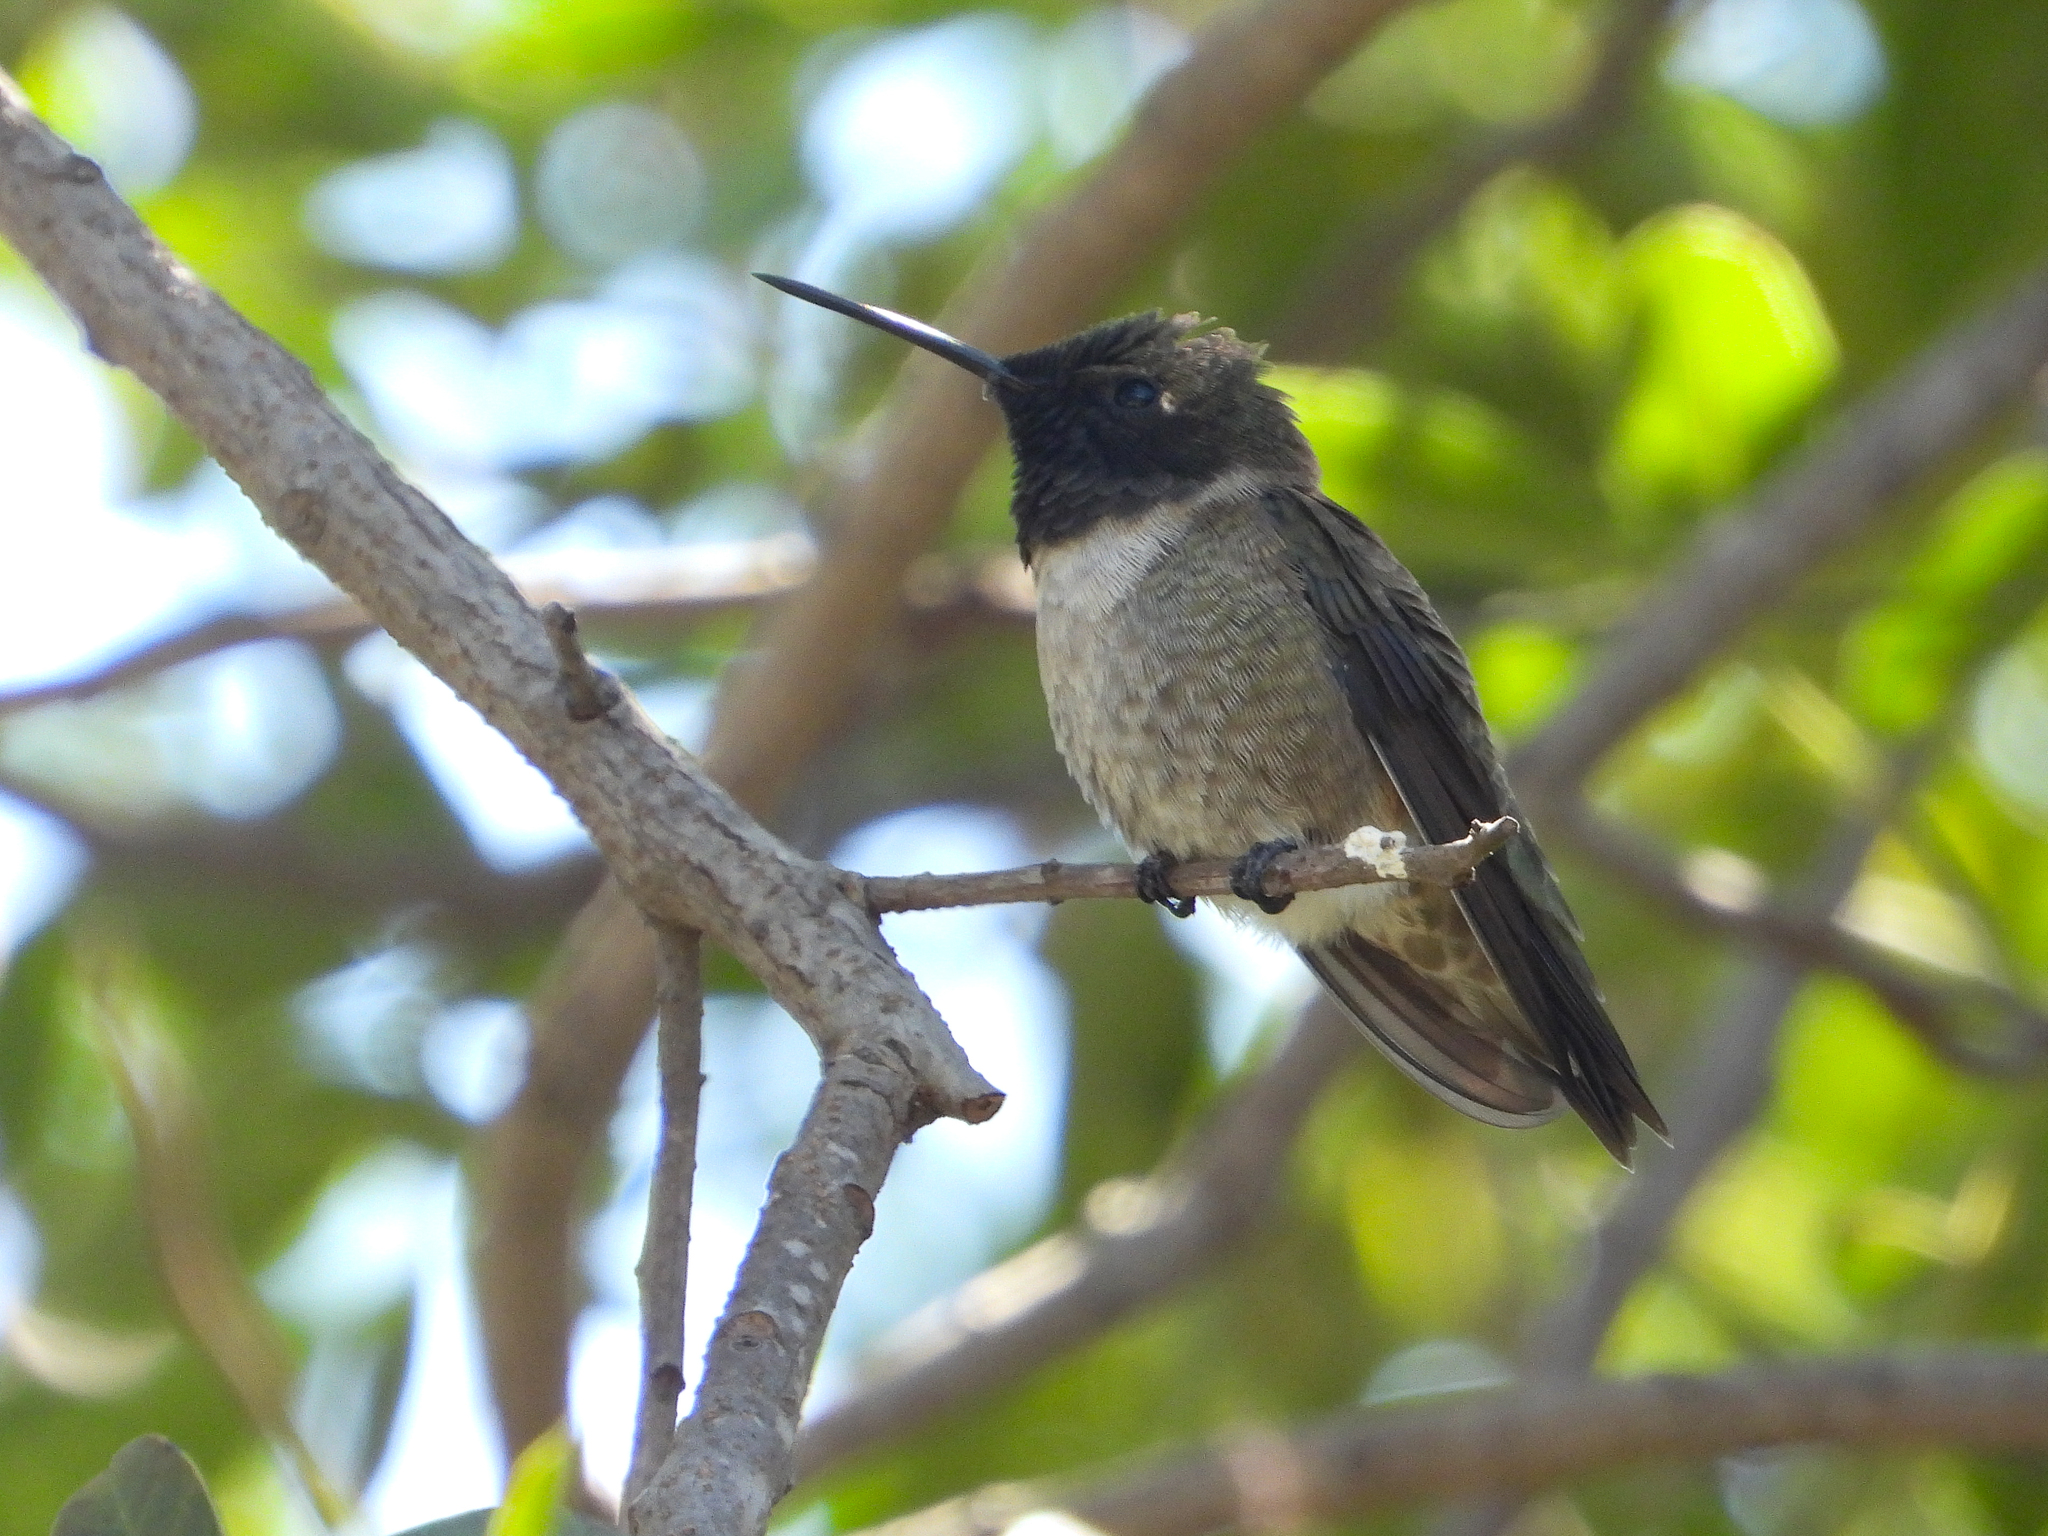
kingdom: Animalia
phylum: Chordata
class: Aves
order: Apodiformes
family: Trochilidae
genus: Archilochus
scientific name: Archilochus alexandri
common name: Black-chinned hummingbird
